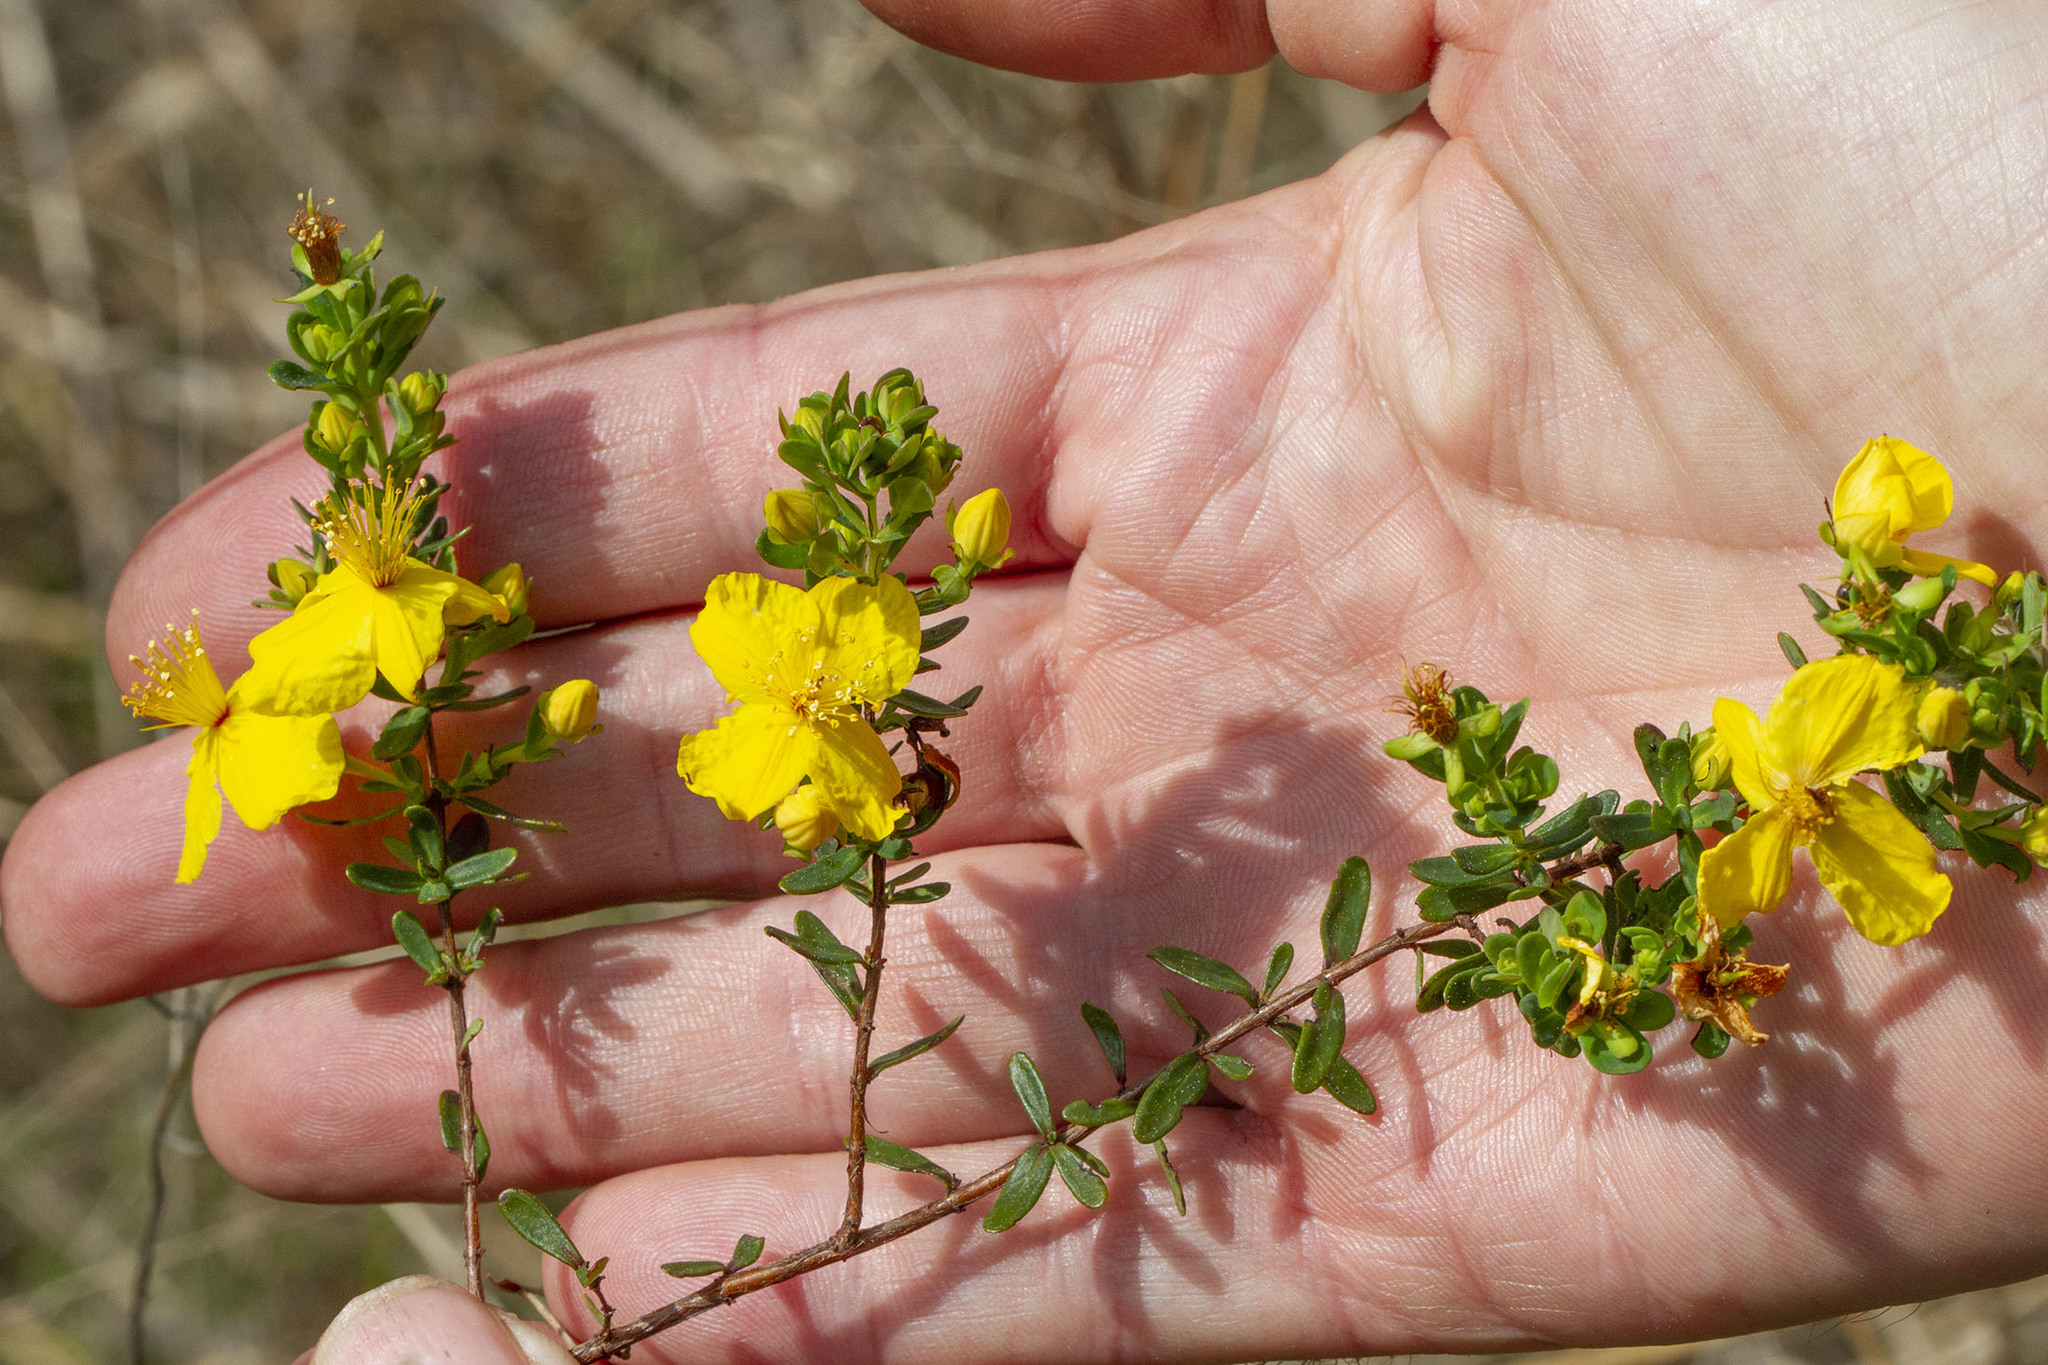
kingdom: Plantae
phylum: Tracheophyta
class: Magnoliopsida
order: Malpighiales
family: Hypericaceae
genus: Hypericum
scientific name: Hypericum microsepalum
